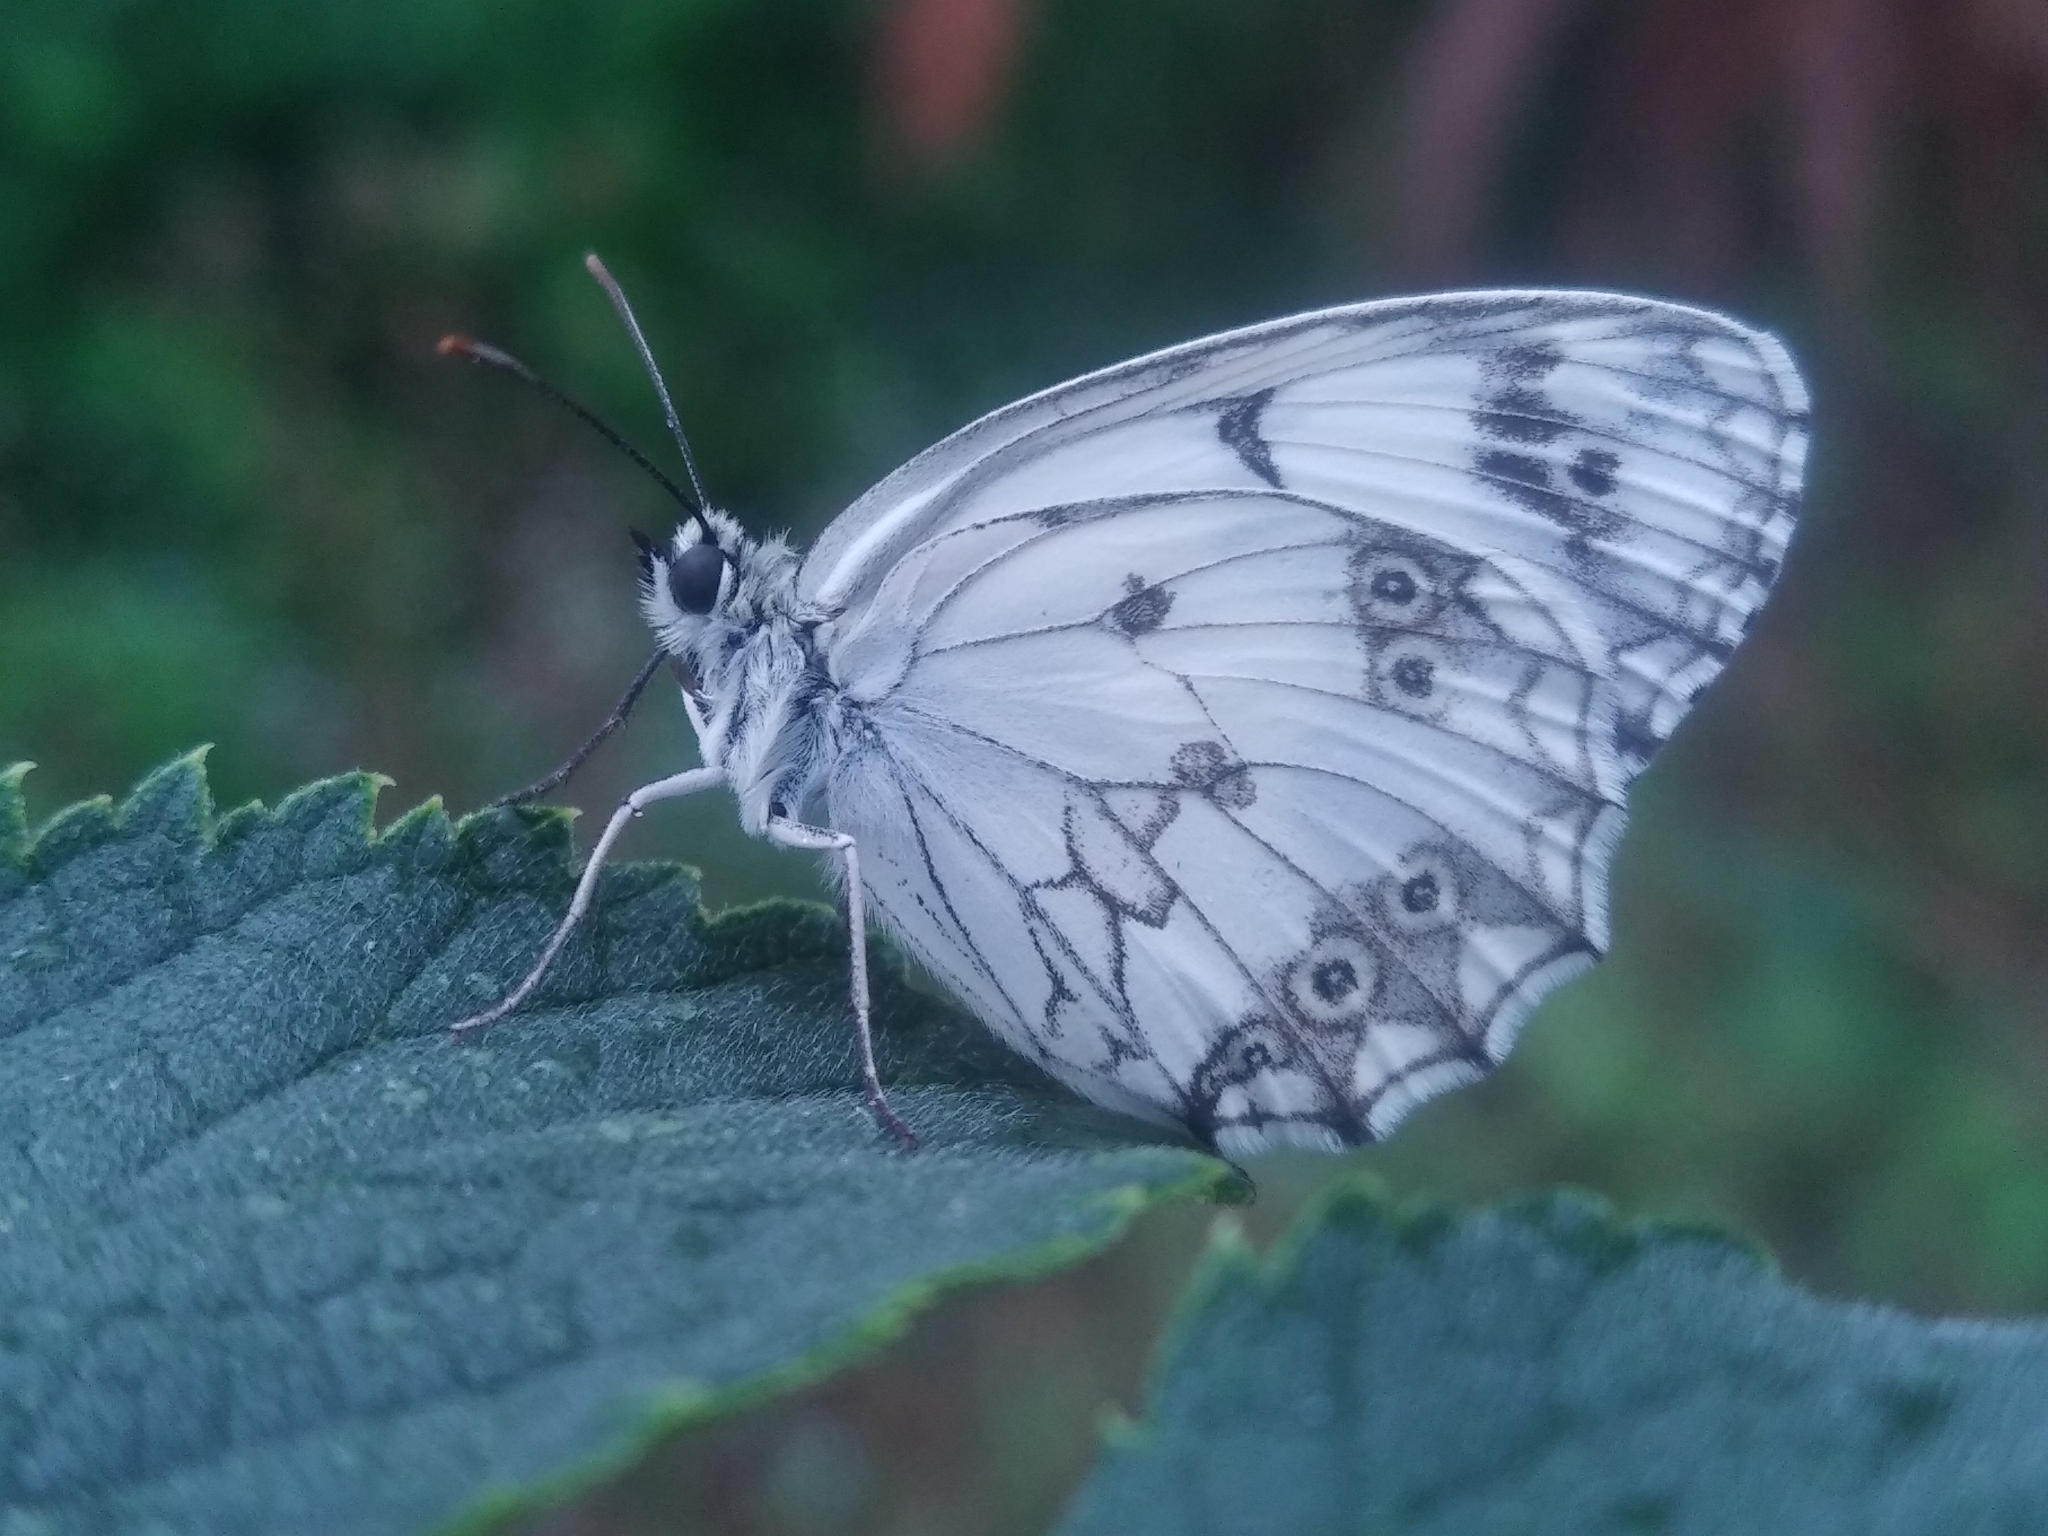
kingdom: Animalia
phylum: Arthropoda
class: Insecta
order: Lepidoptera
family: Nymphalidae
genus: Melanargia
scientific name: Melanargia lachesis
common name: Iberian marbled white
